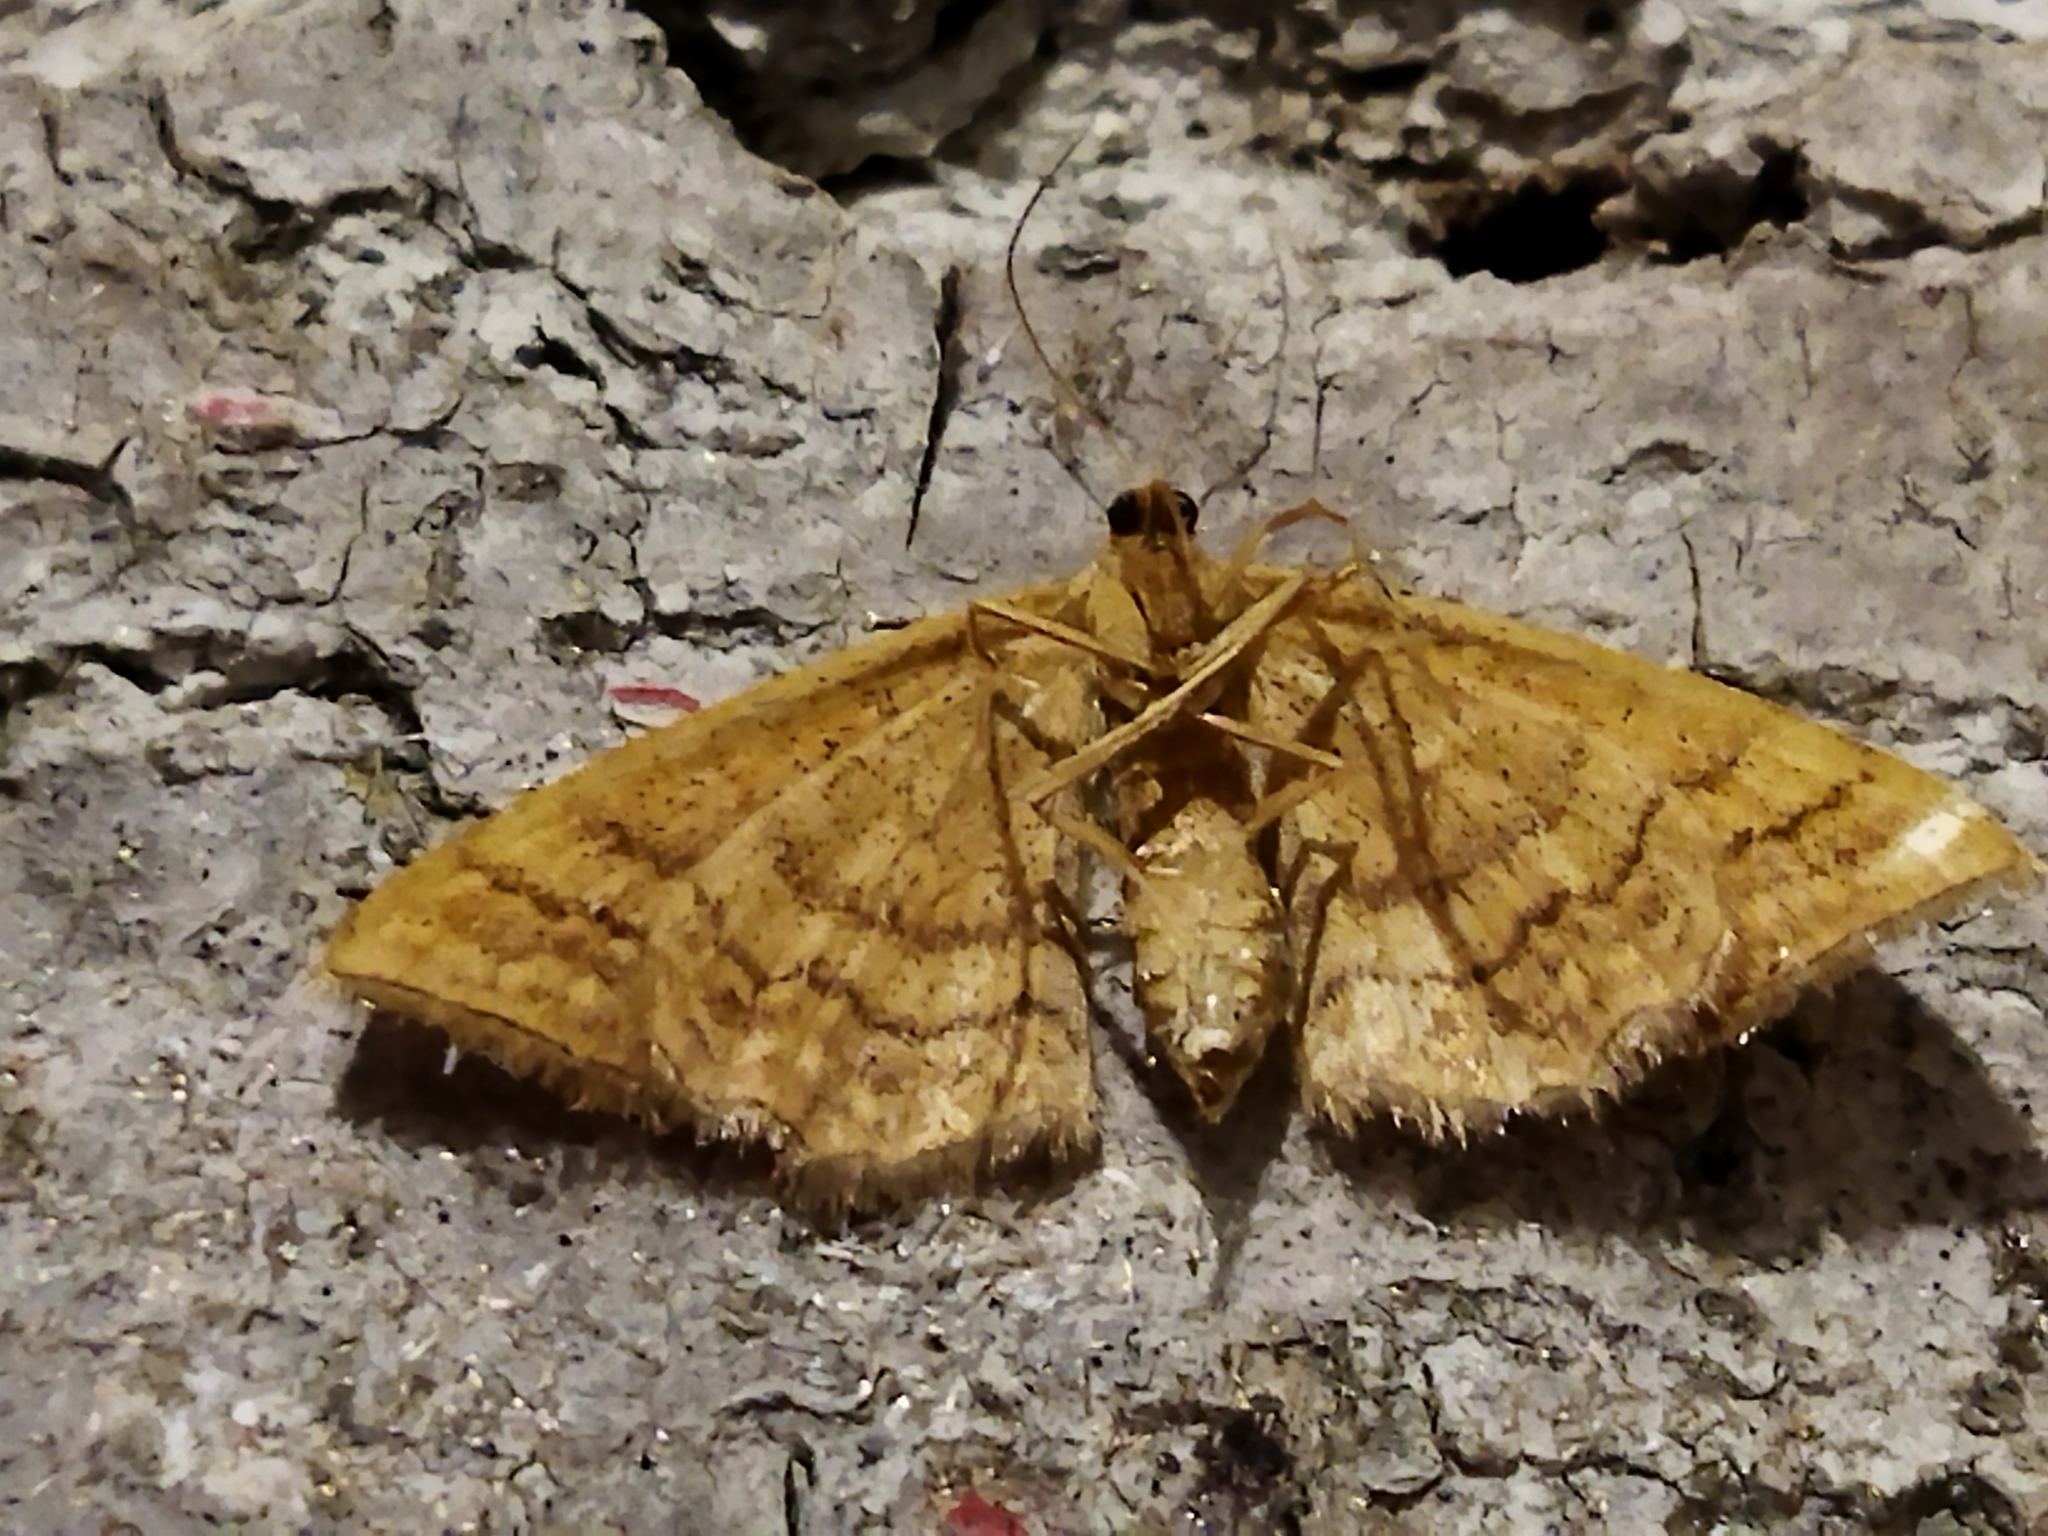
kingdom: Animalia
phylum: Arthropoda
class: Insecta
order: Lepidoptera
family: Geometridae
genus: Idaea
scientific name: Idaea ochrata
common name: Bright wave
